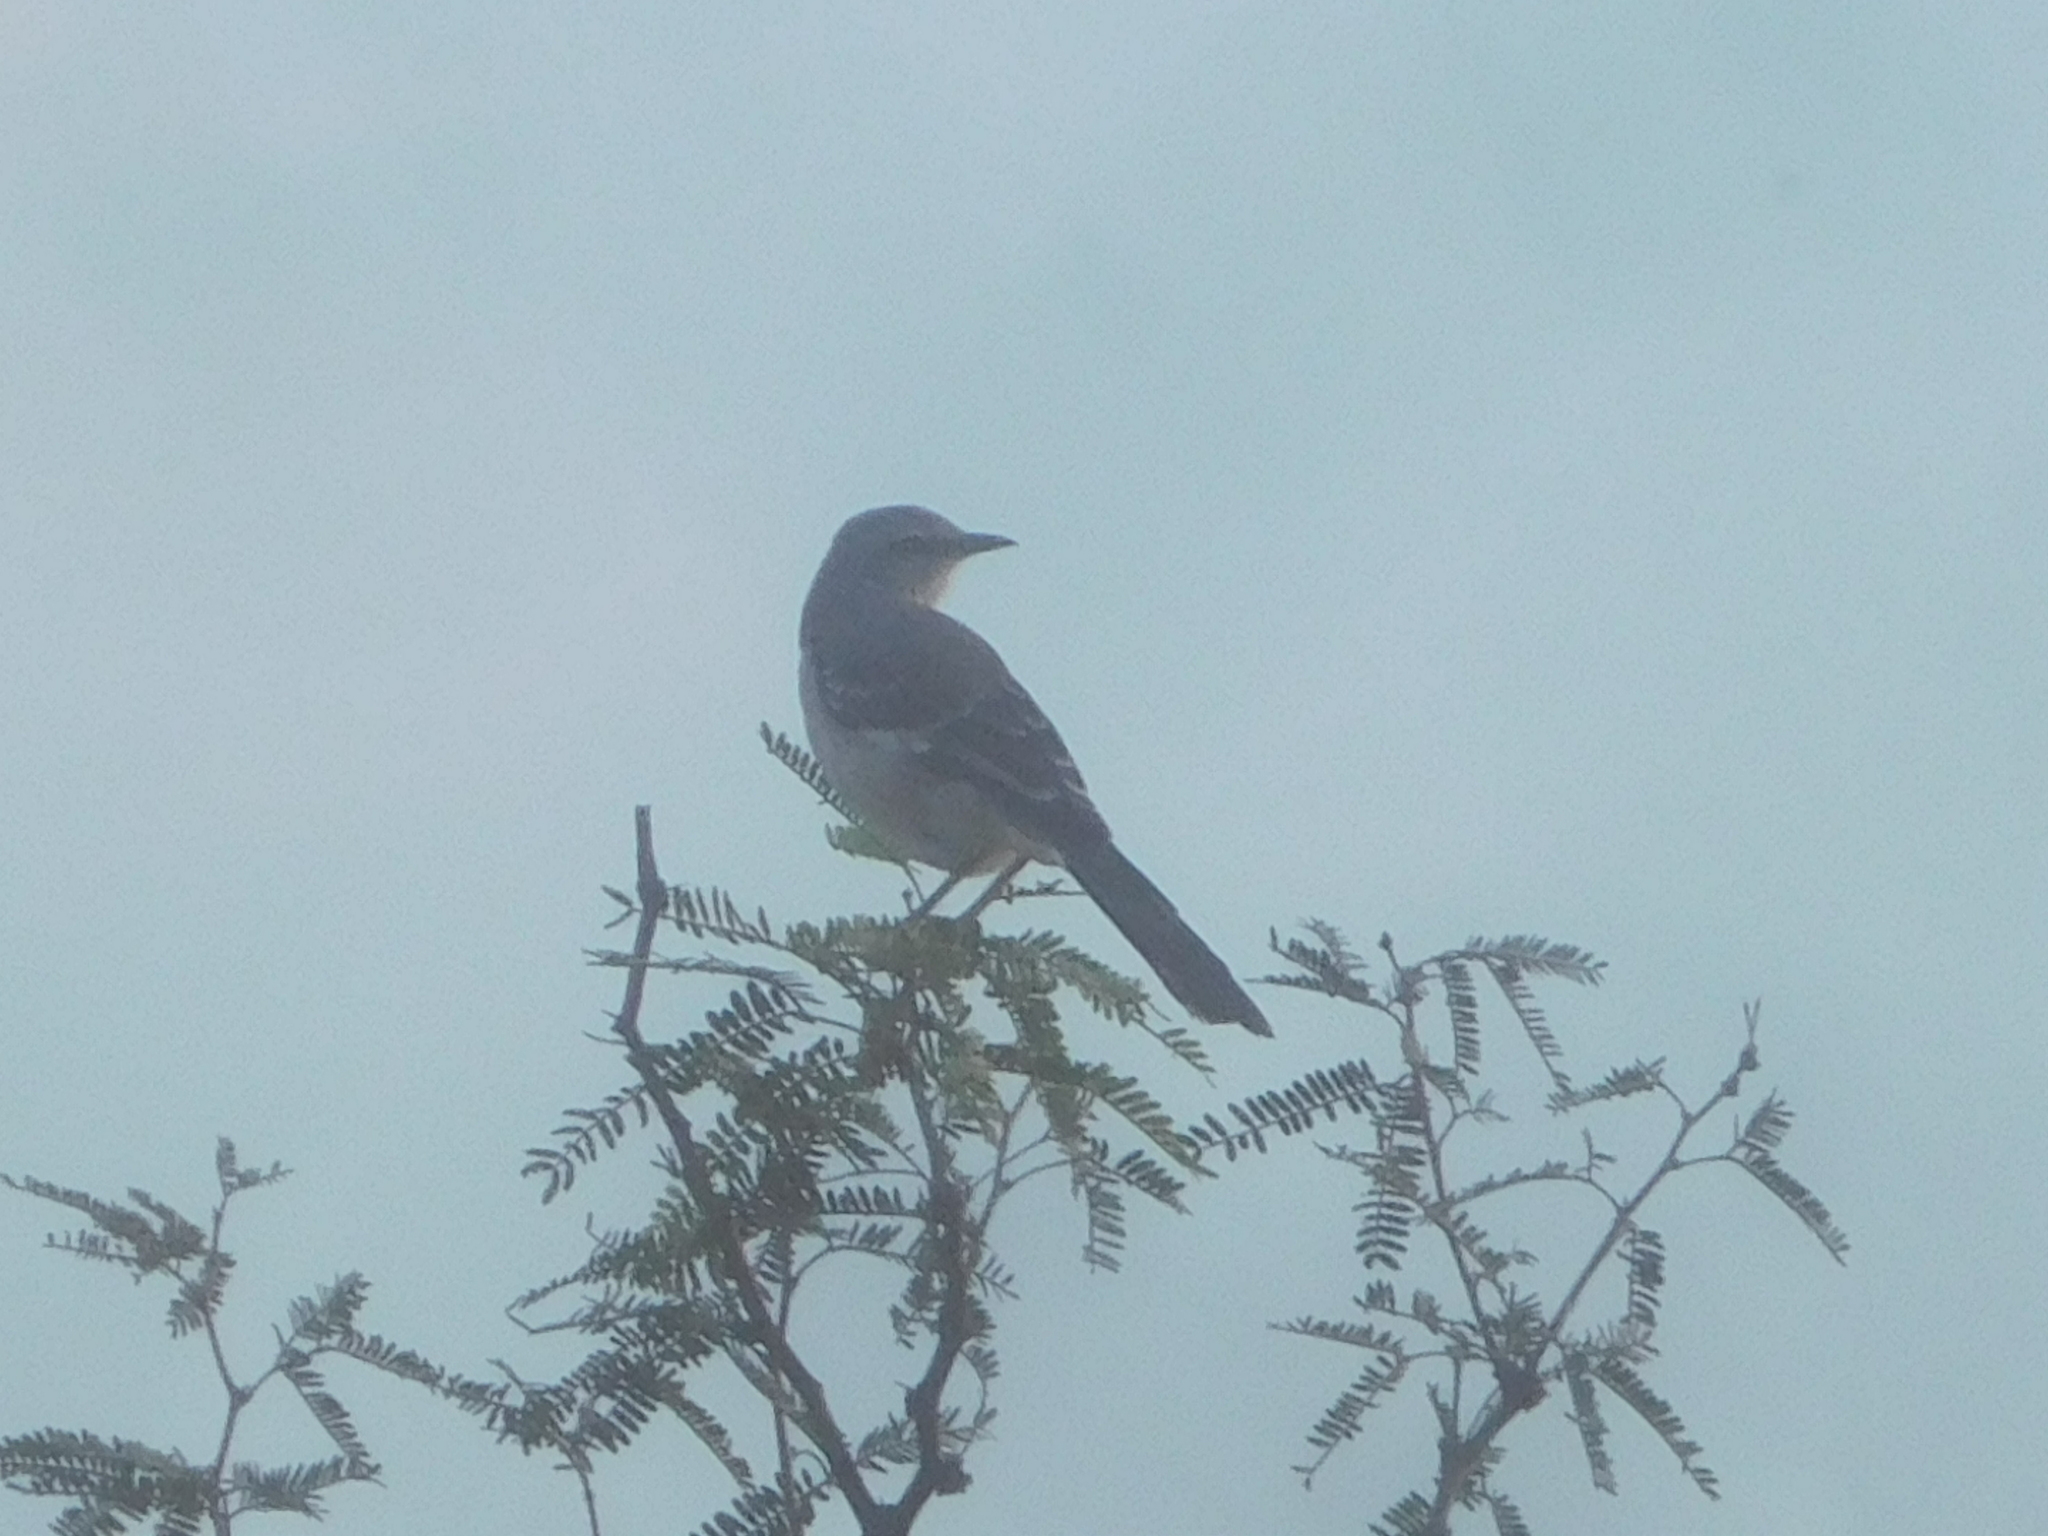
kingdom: Animalia
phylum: Chordata
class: Aves
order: Passeriformes
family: Mimidae
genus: Mimus
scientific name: Mimus polyglottos
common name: Northern mockingbird
